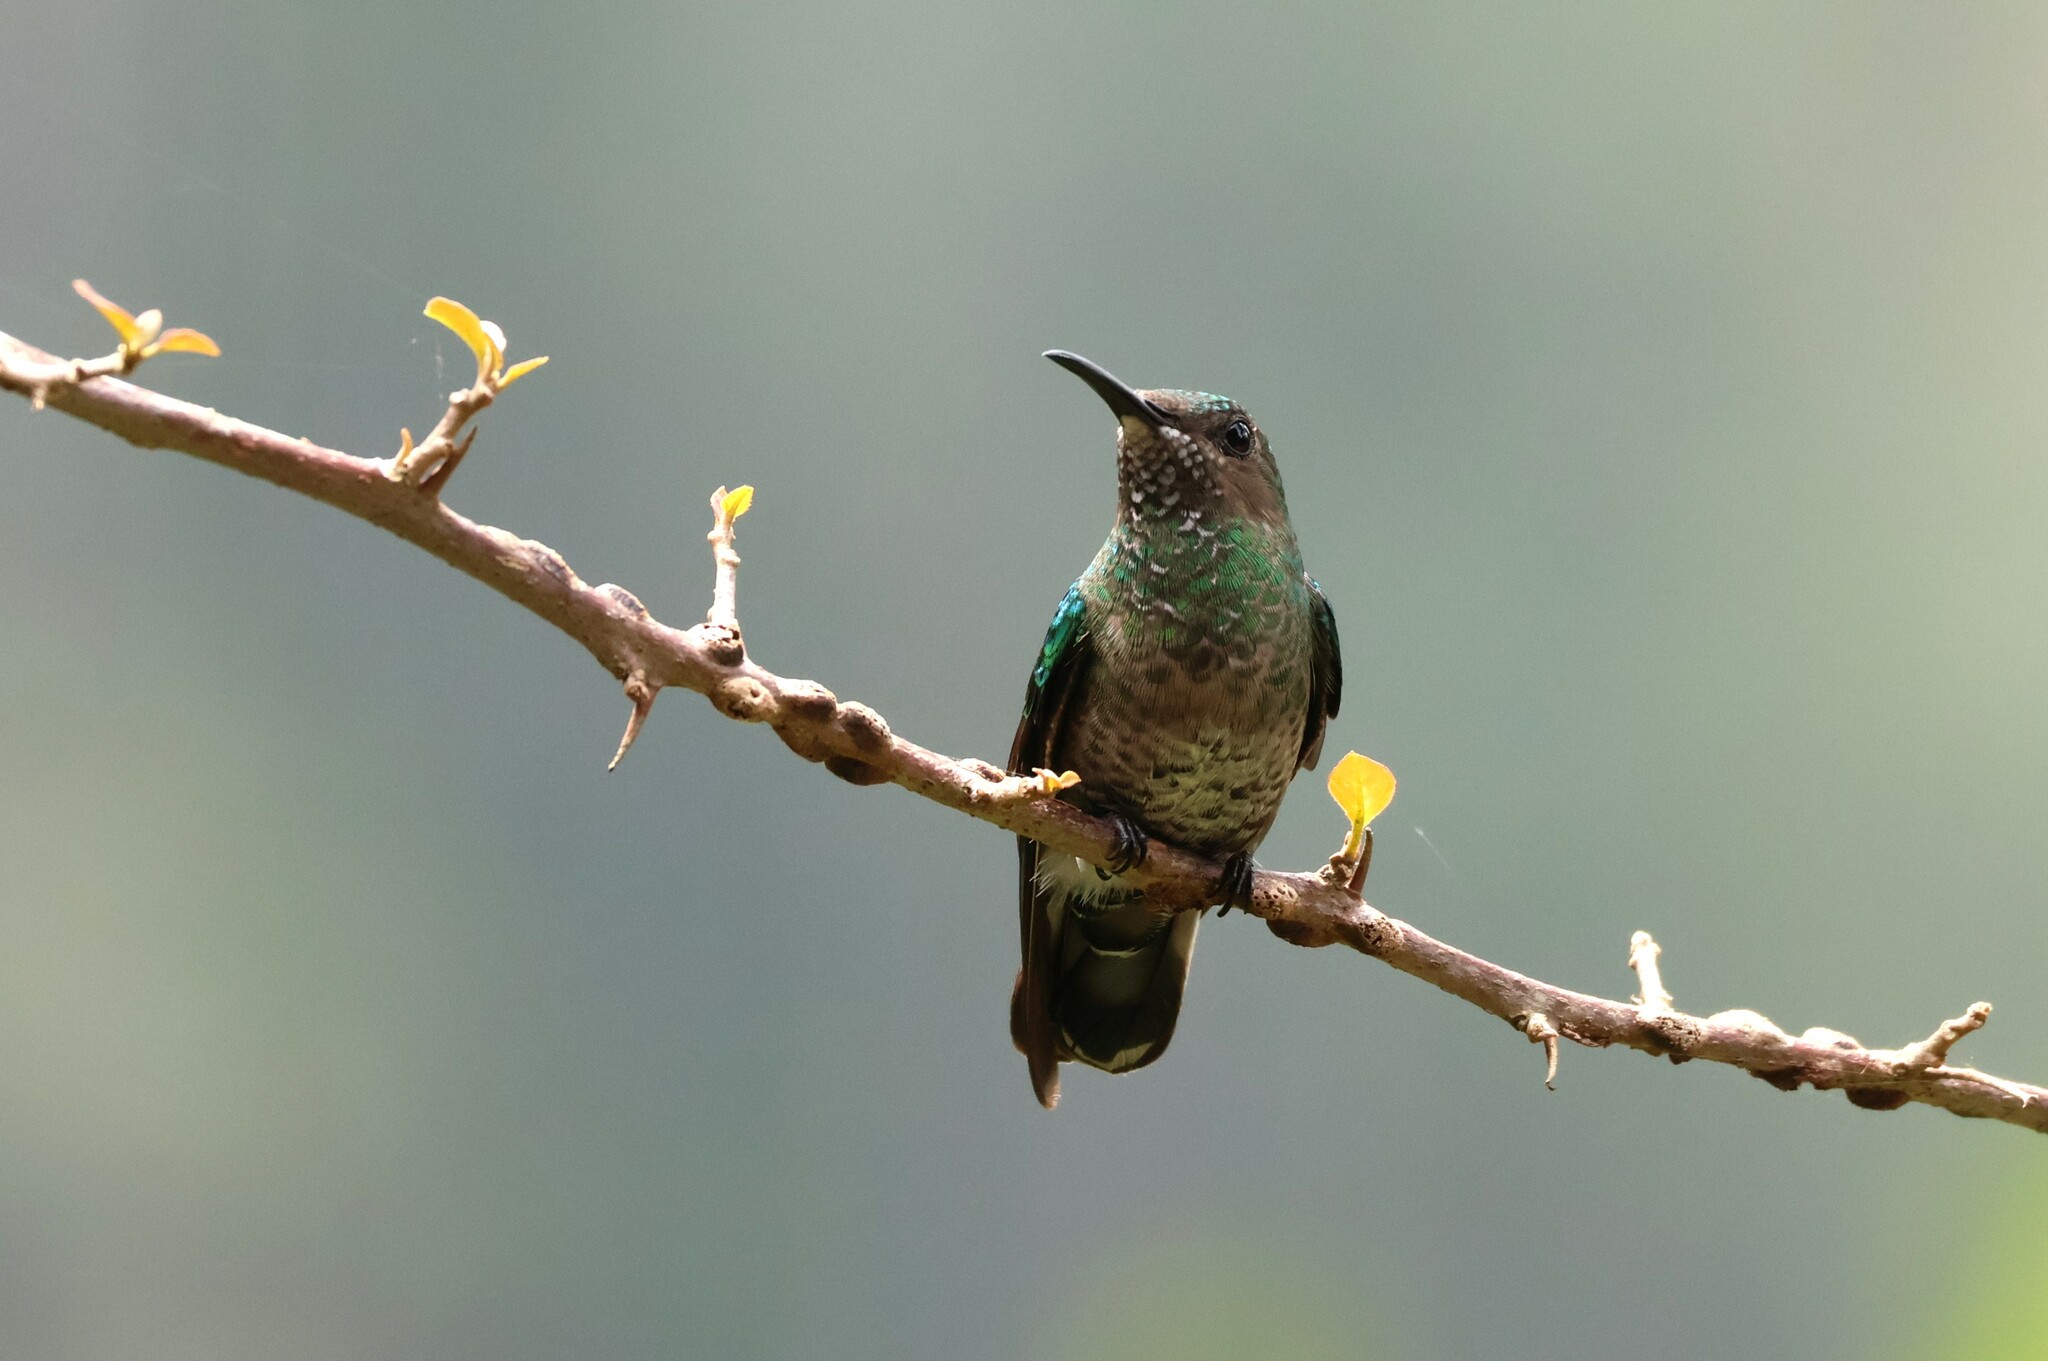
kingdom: Animalia
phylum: Chordata
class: Aves
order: Apodiformes
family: Trochilidae
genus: Florisuga
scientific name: Florisuga mellivora
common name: White-necked jacobin
